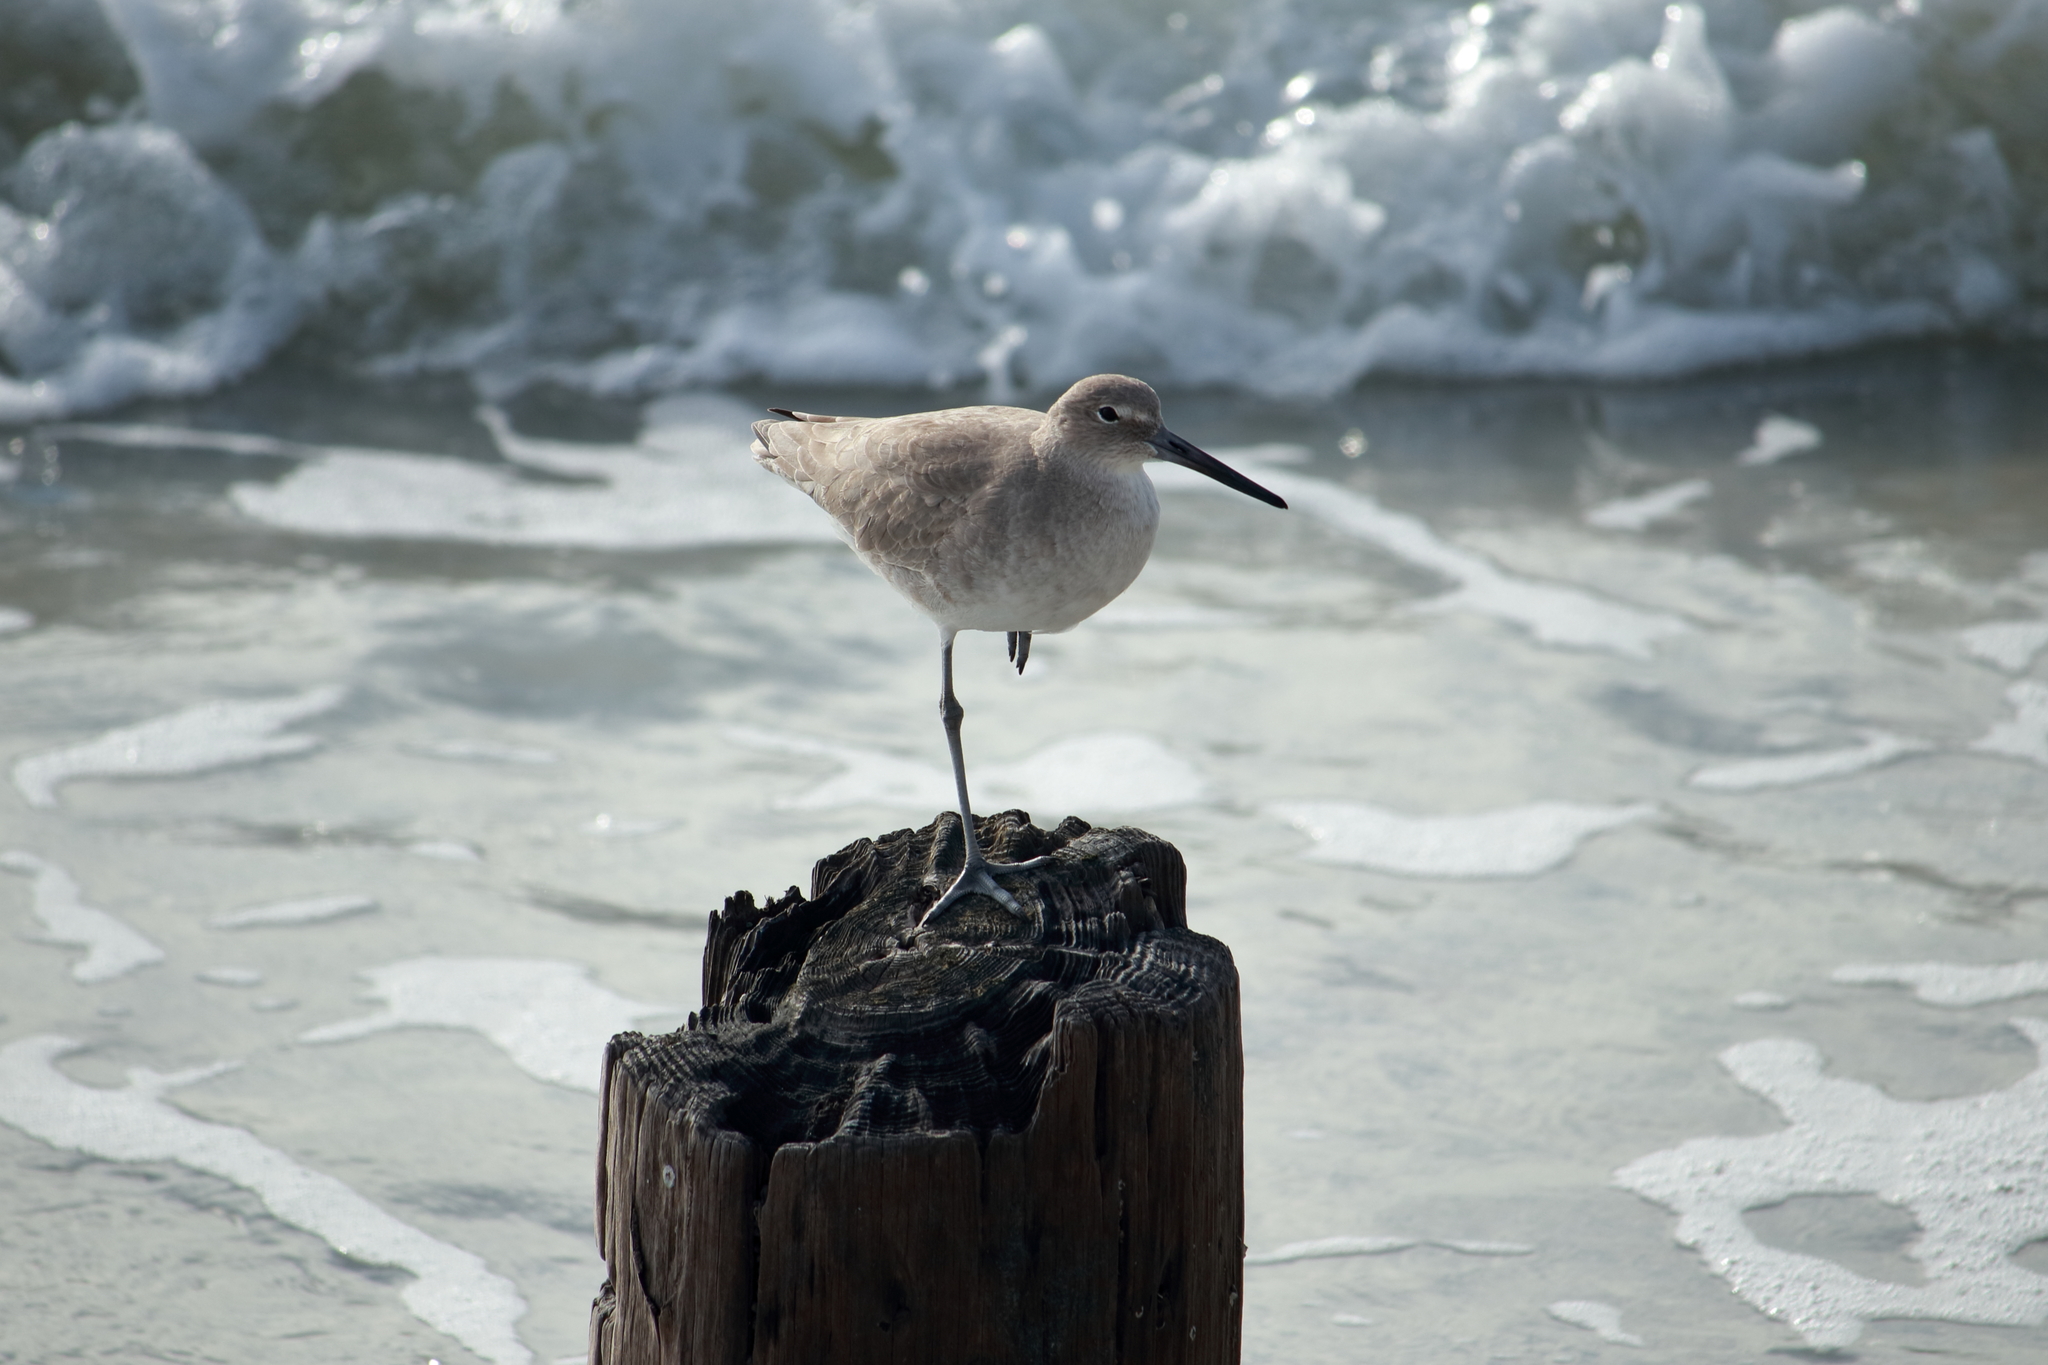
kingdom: Animalia
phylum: Chordata
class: Aves
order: Charadriiformes
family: Scolopacidae
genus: Tringa
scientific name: Tringa semipalmata
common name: Willet
